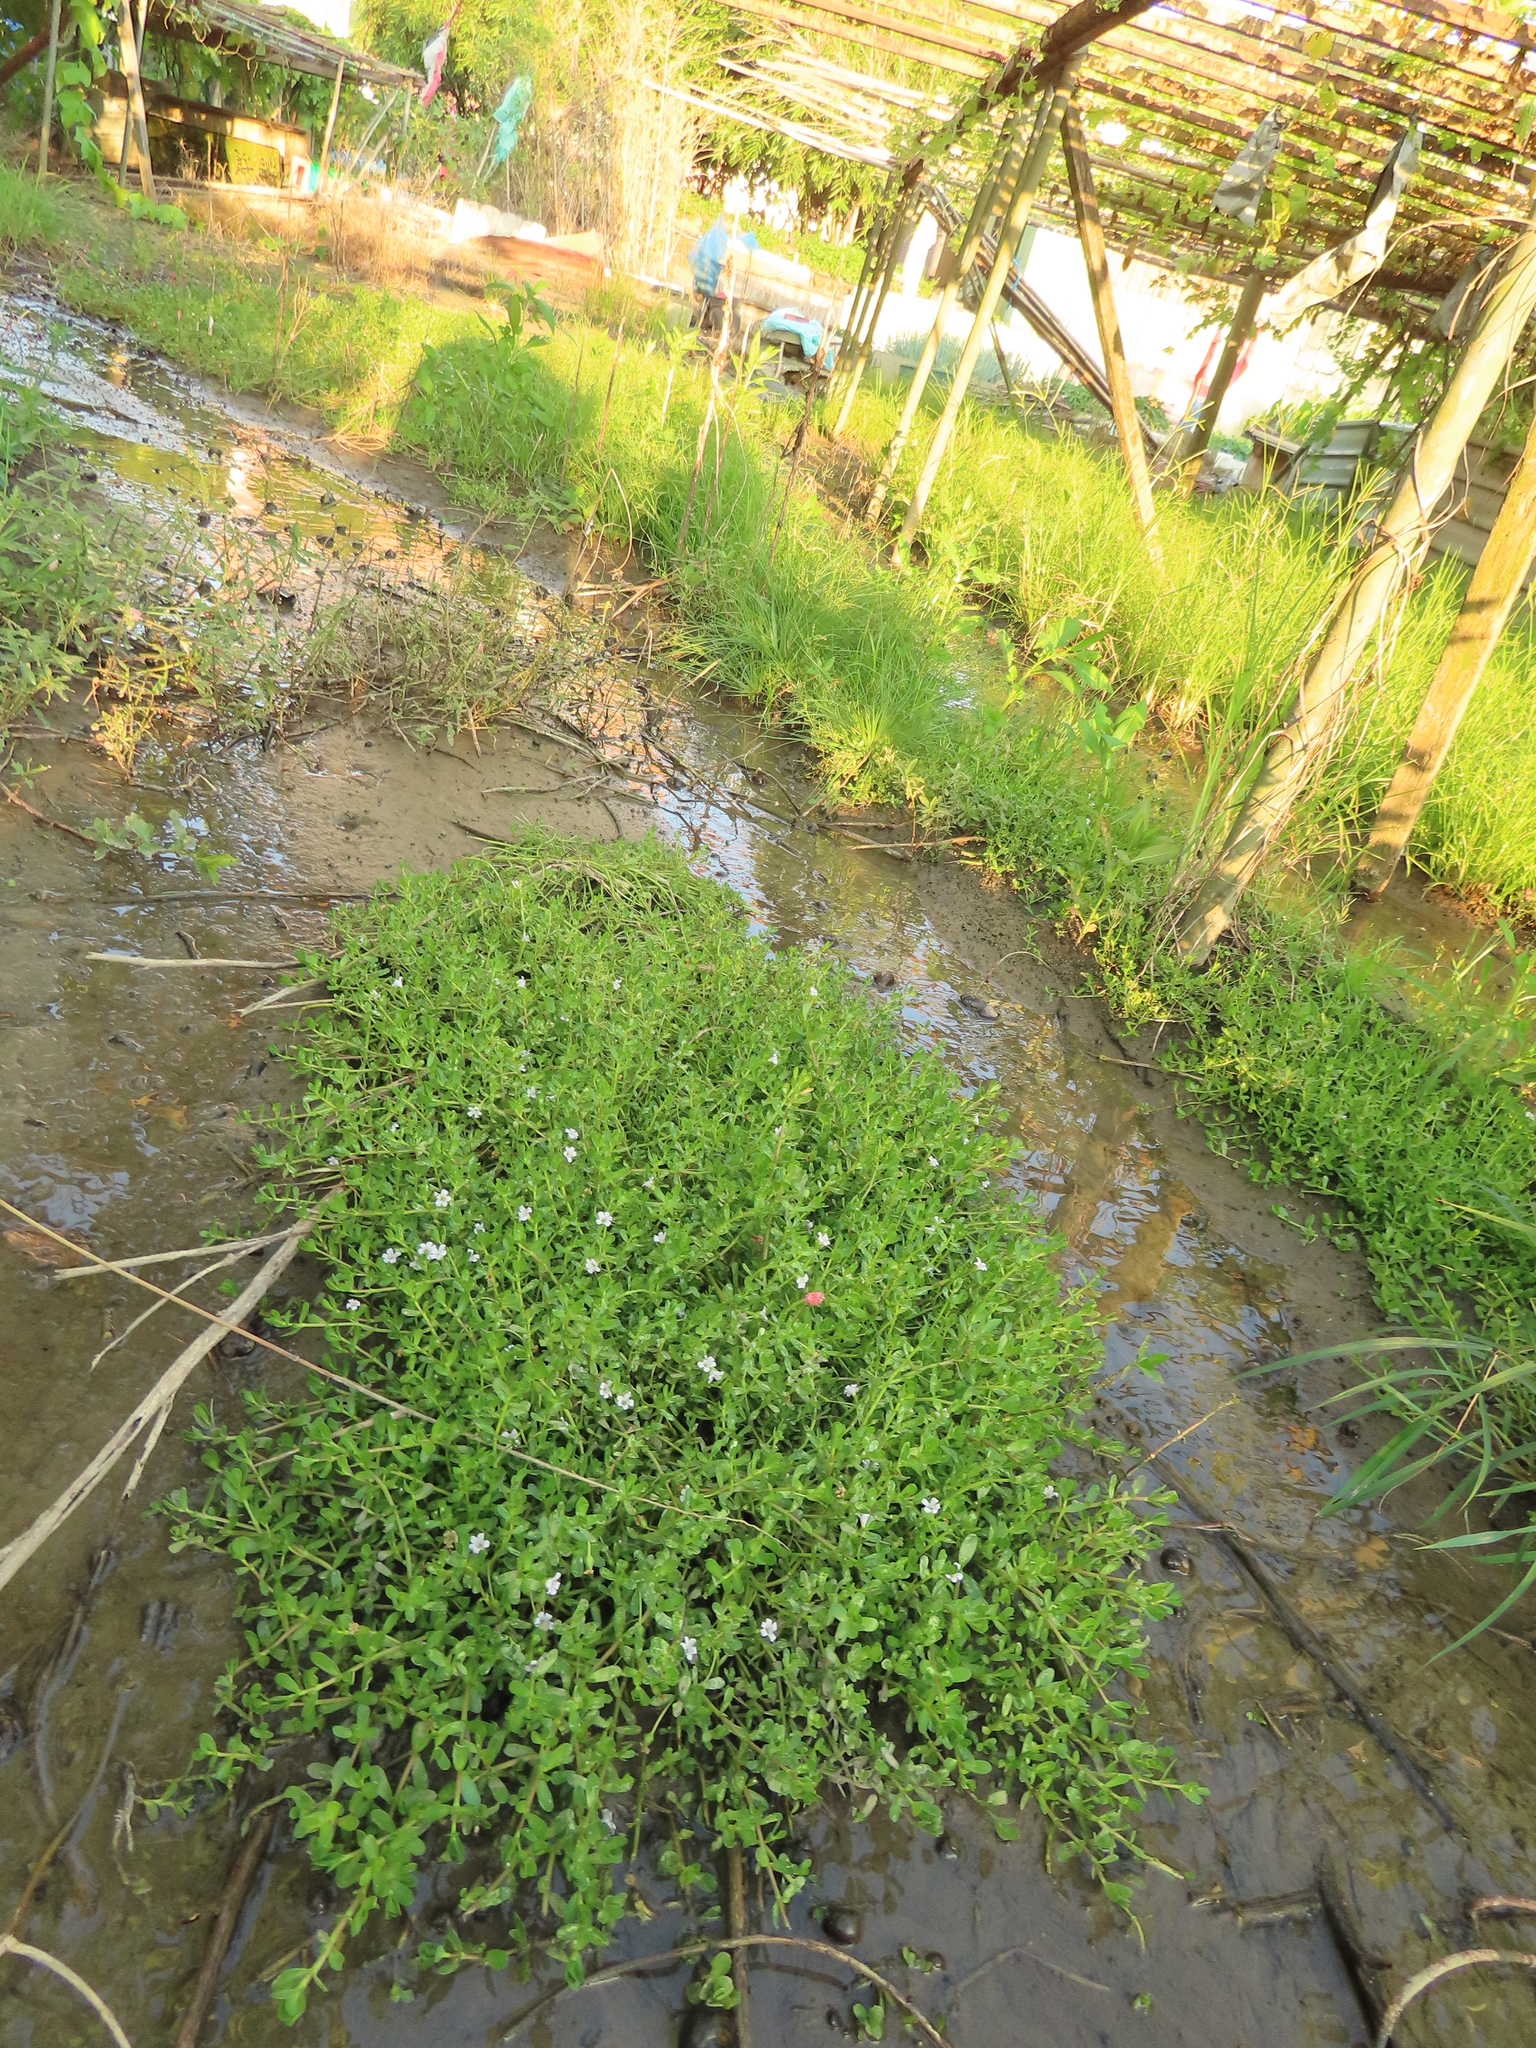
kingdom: Plantae
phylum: Tracheophyta
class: Magnoliopsida
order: Lamiales
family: Plantaginaceae
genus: Bacopa
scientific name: Bacopa monnieri
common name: Indian-pennywort
